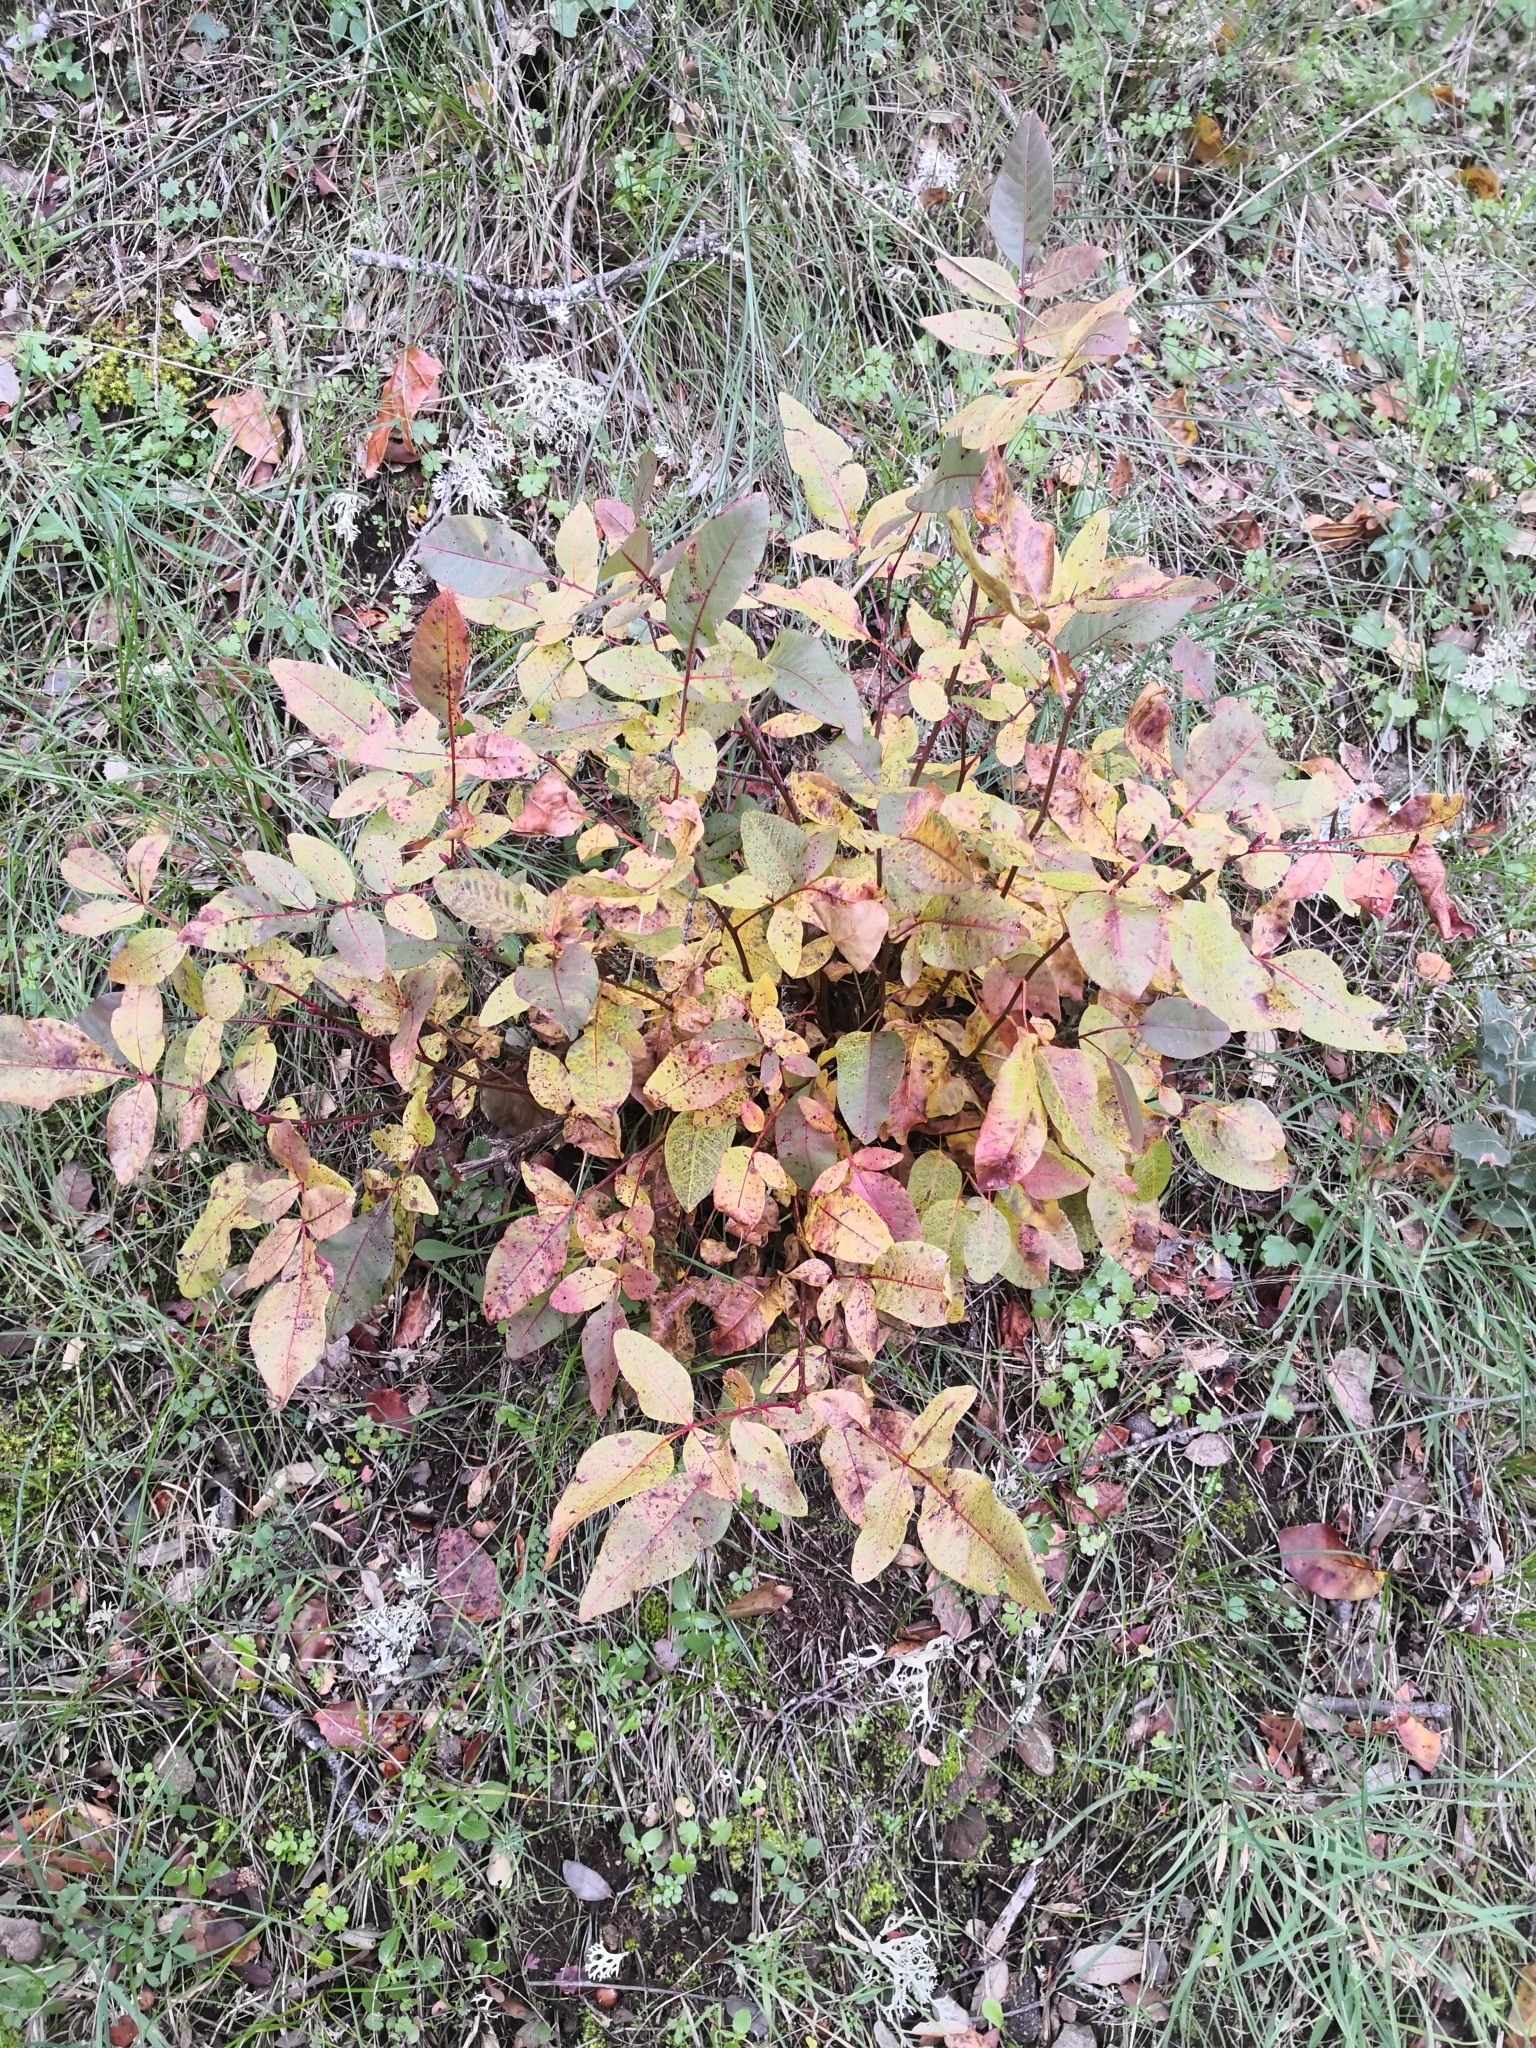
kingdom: Plantae
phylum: Tracheophyta
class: Magnoliopsida
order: Sapindales
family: Anacardiaceae
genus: Pistacia
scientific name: Pistacia terebinthus
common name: Terebinth
